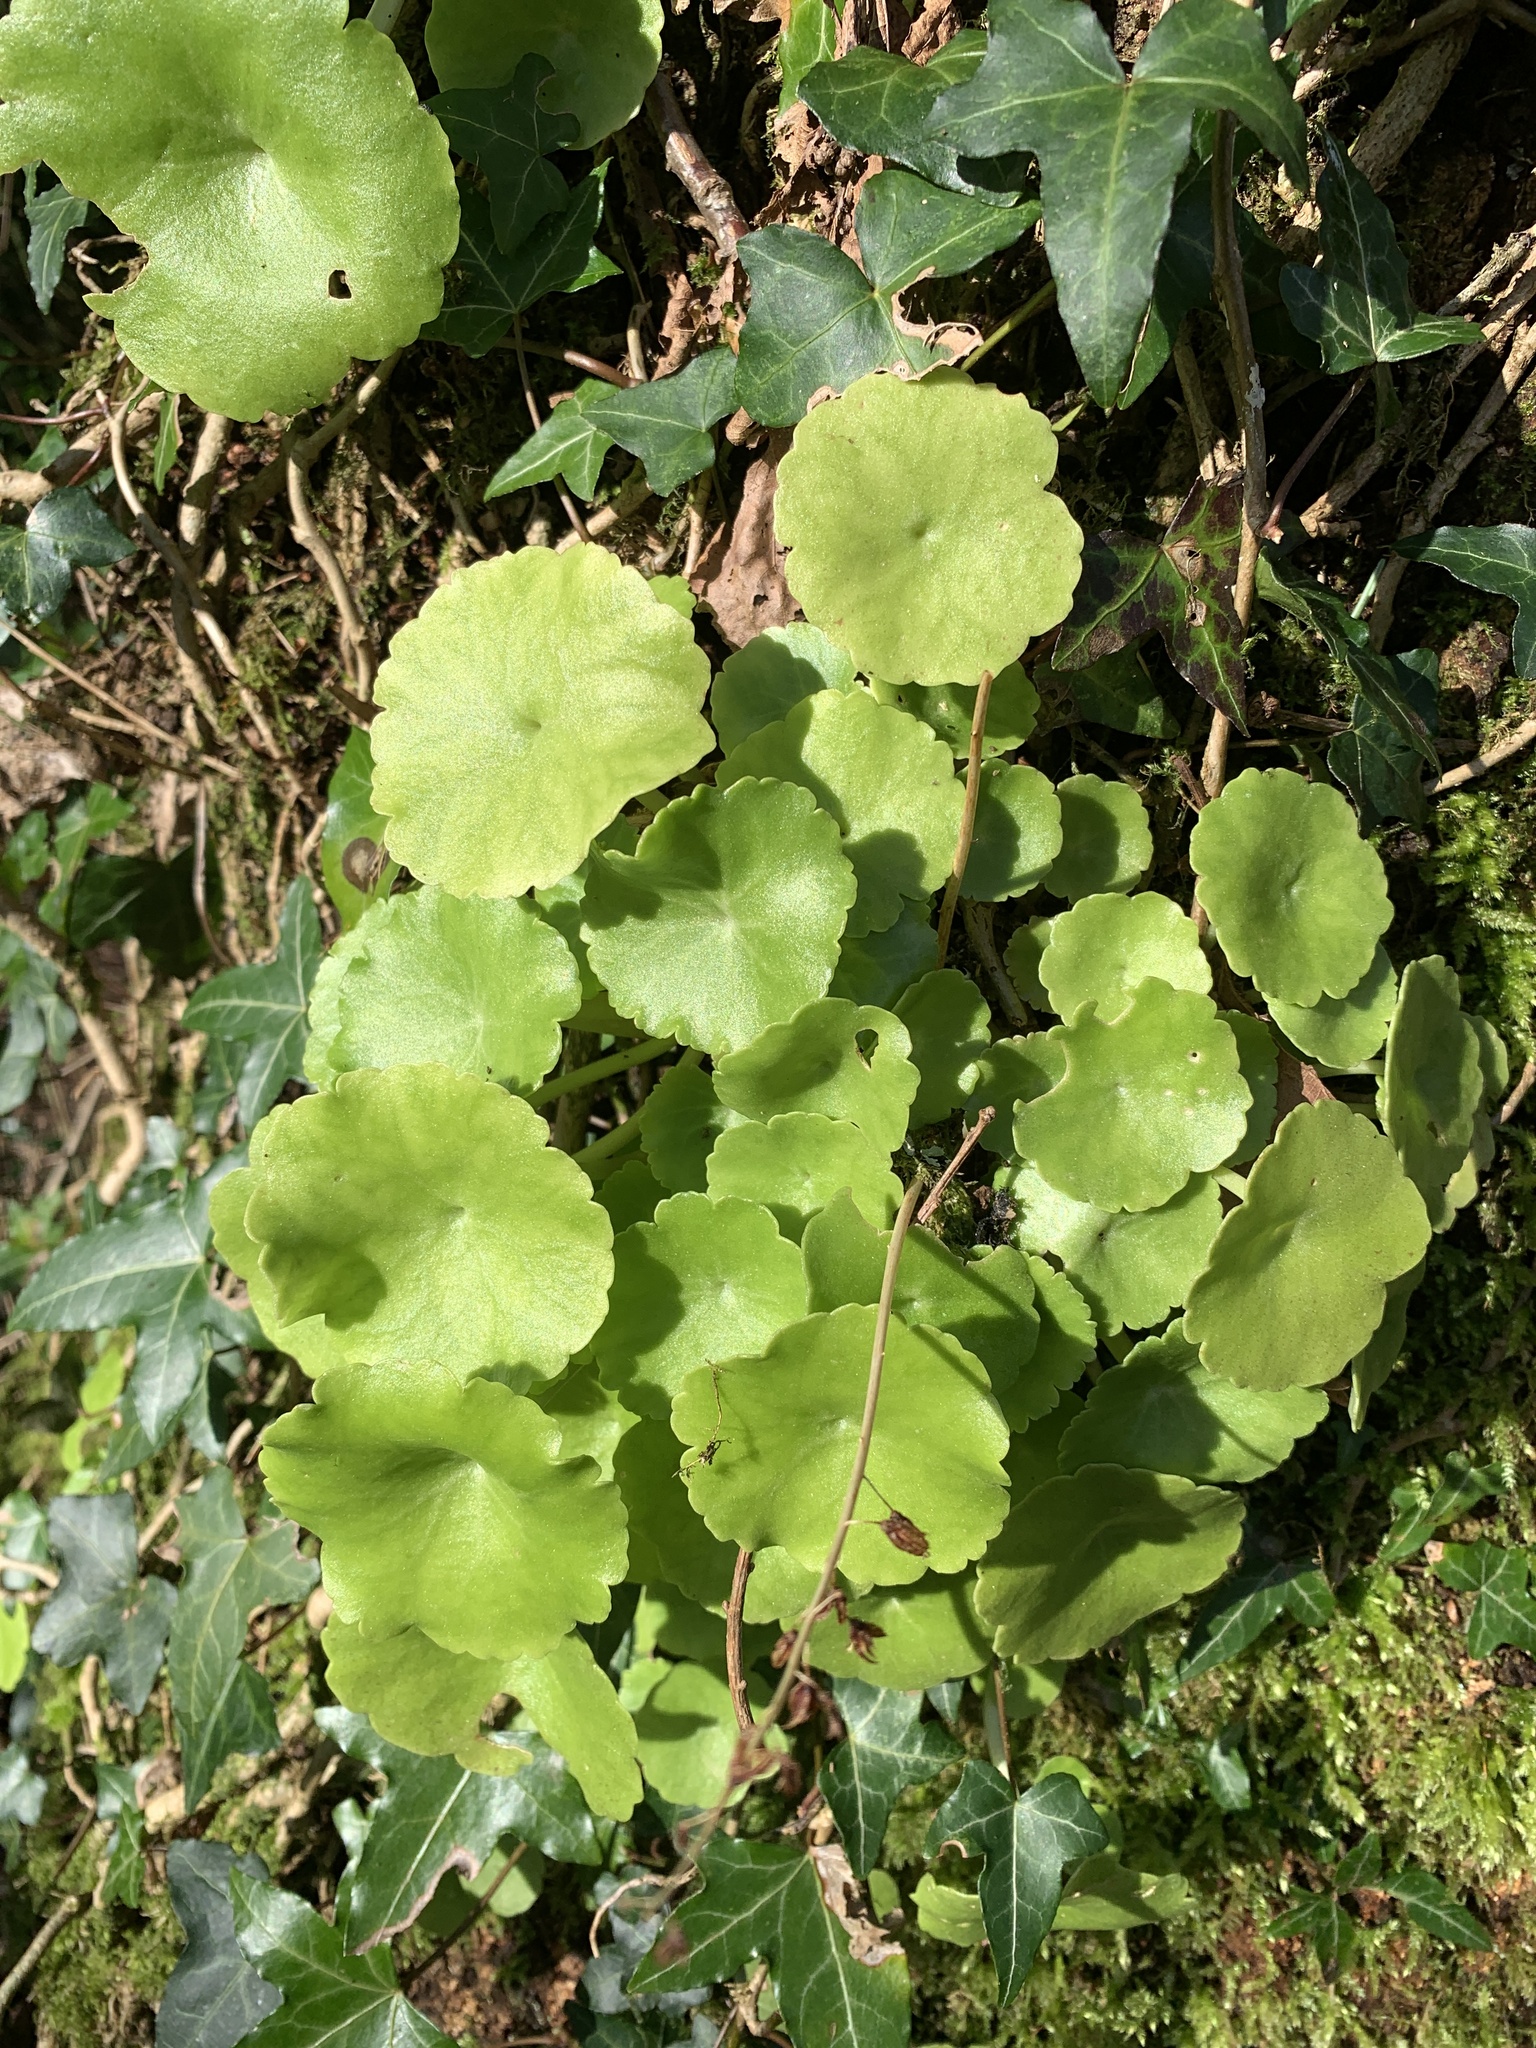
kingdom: Plantae
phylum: Tracheophyta
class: Magnoliopsida
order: Saxifragales
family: Crassulaceae
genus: Umbilicus
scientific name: Umbilicus rupestris
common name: Navelwort
